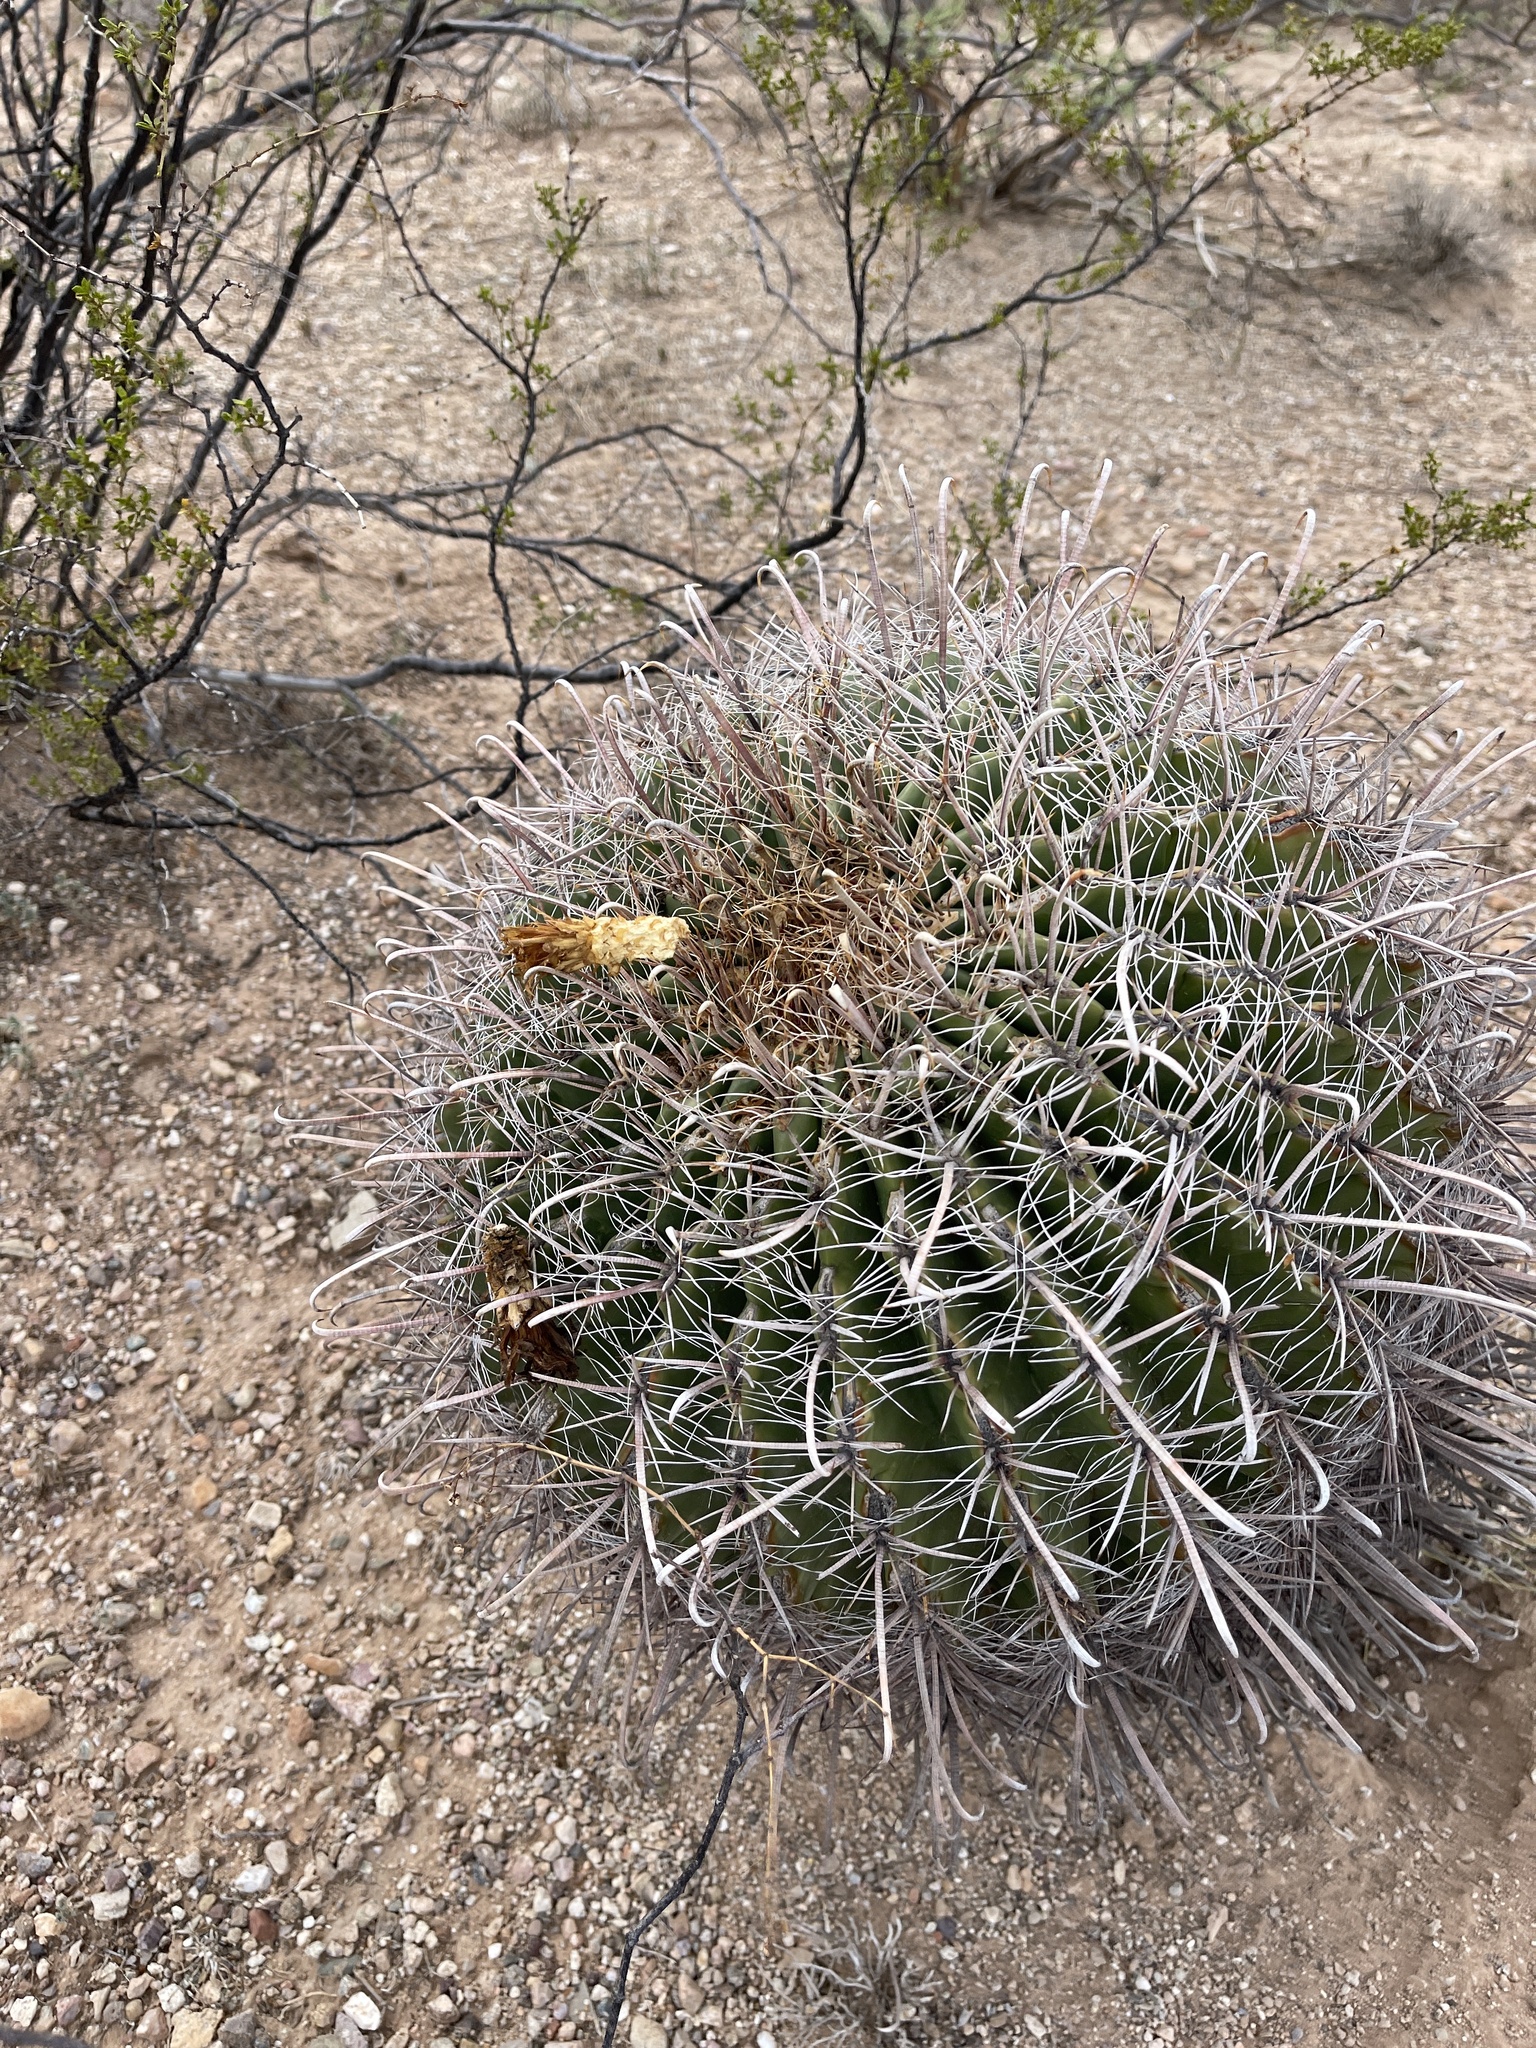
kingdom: Plantae
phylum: Tracheophyta
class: Magnoliopsida
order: Caryophyllales
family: Cactaceae
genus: Ferocactus
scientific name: Ferocactus wislizeni
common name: Candy barrel cactus
